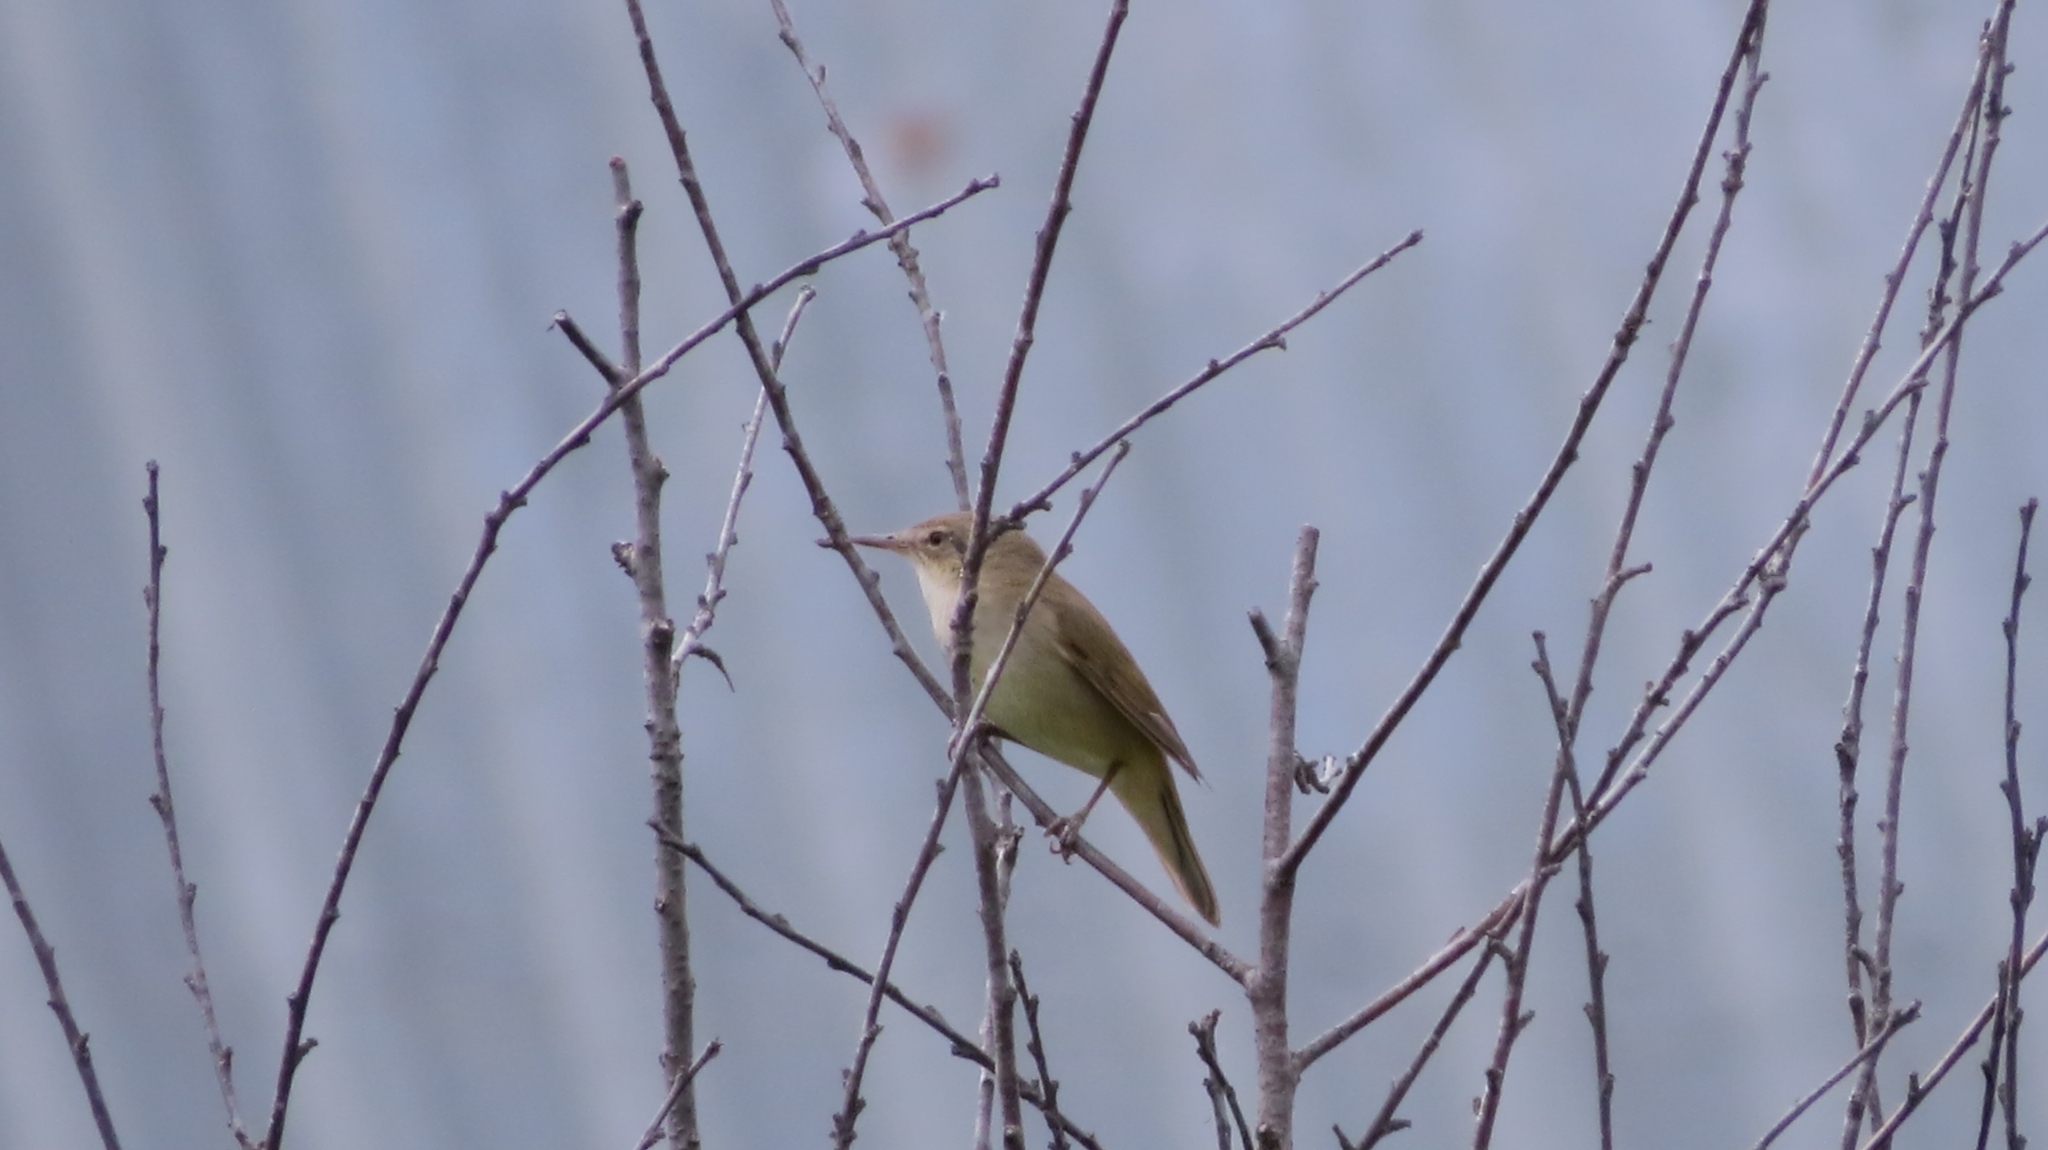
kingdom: Animalia
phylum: Chordata
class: Aves
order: Passeriformes
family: Acrocephalidae
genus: Acrocephalus
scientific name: Acrocephalus dumetorum
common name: Blyth's reed warbler
